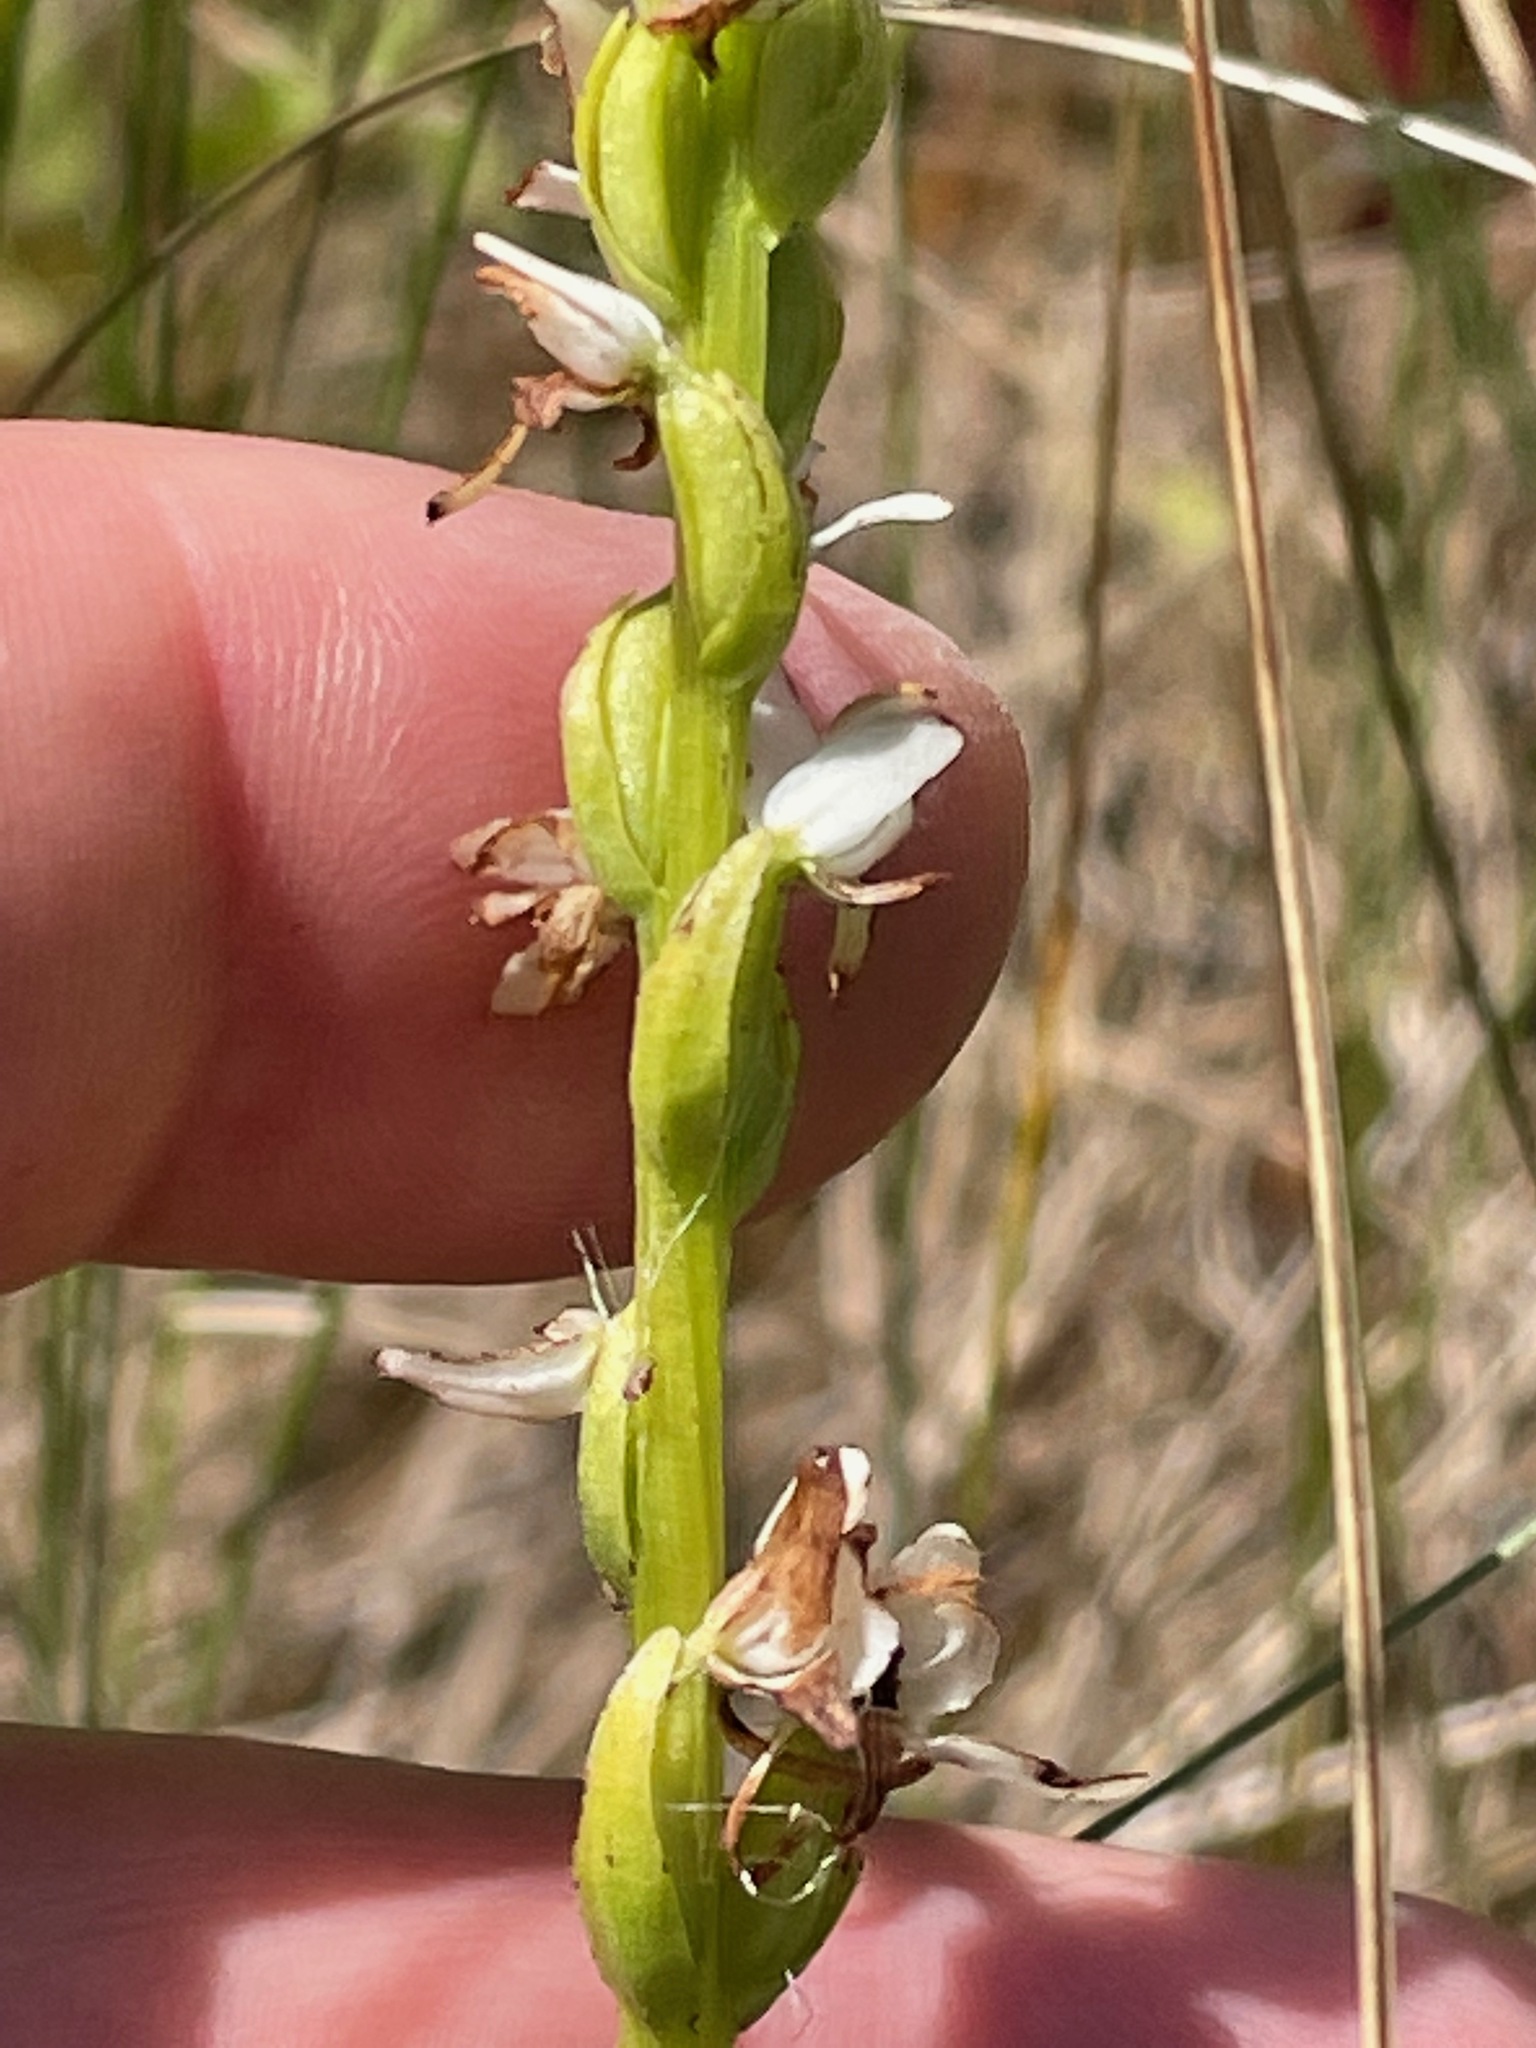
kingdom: Plantae
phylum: Tracheophyta
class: Liliopsida
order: Asparagales
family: Orchidaceae
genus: Platanthera
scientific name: Platanthera dilatata
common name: Bog candles
